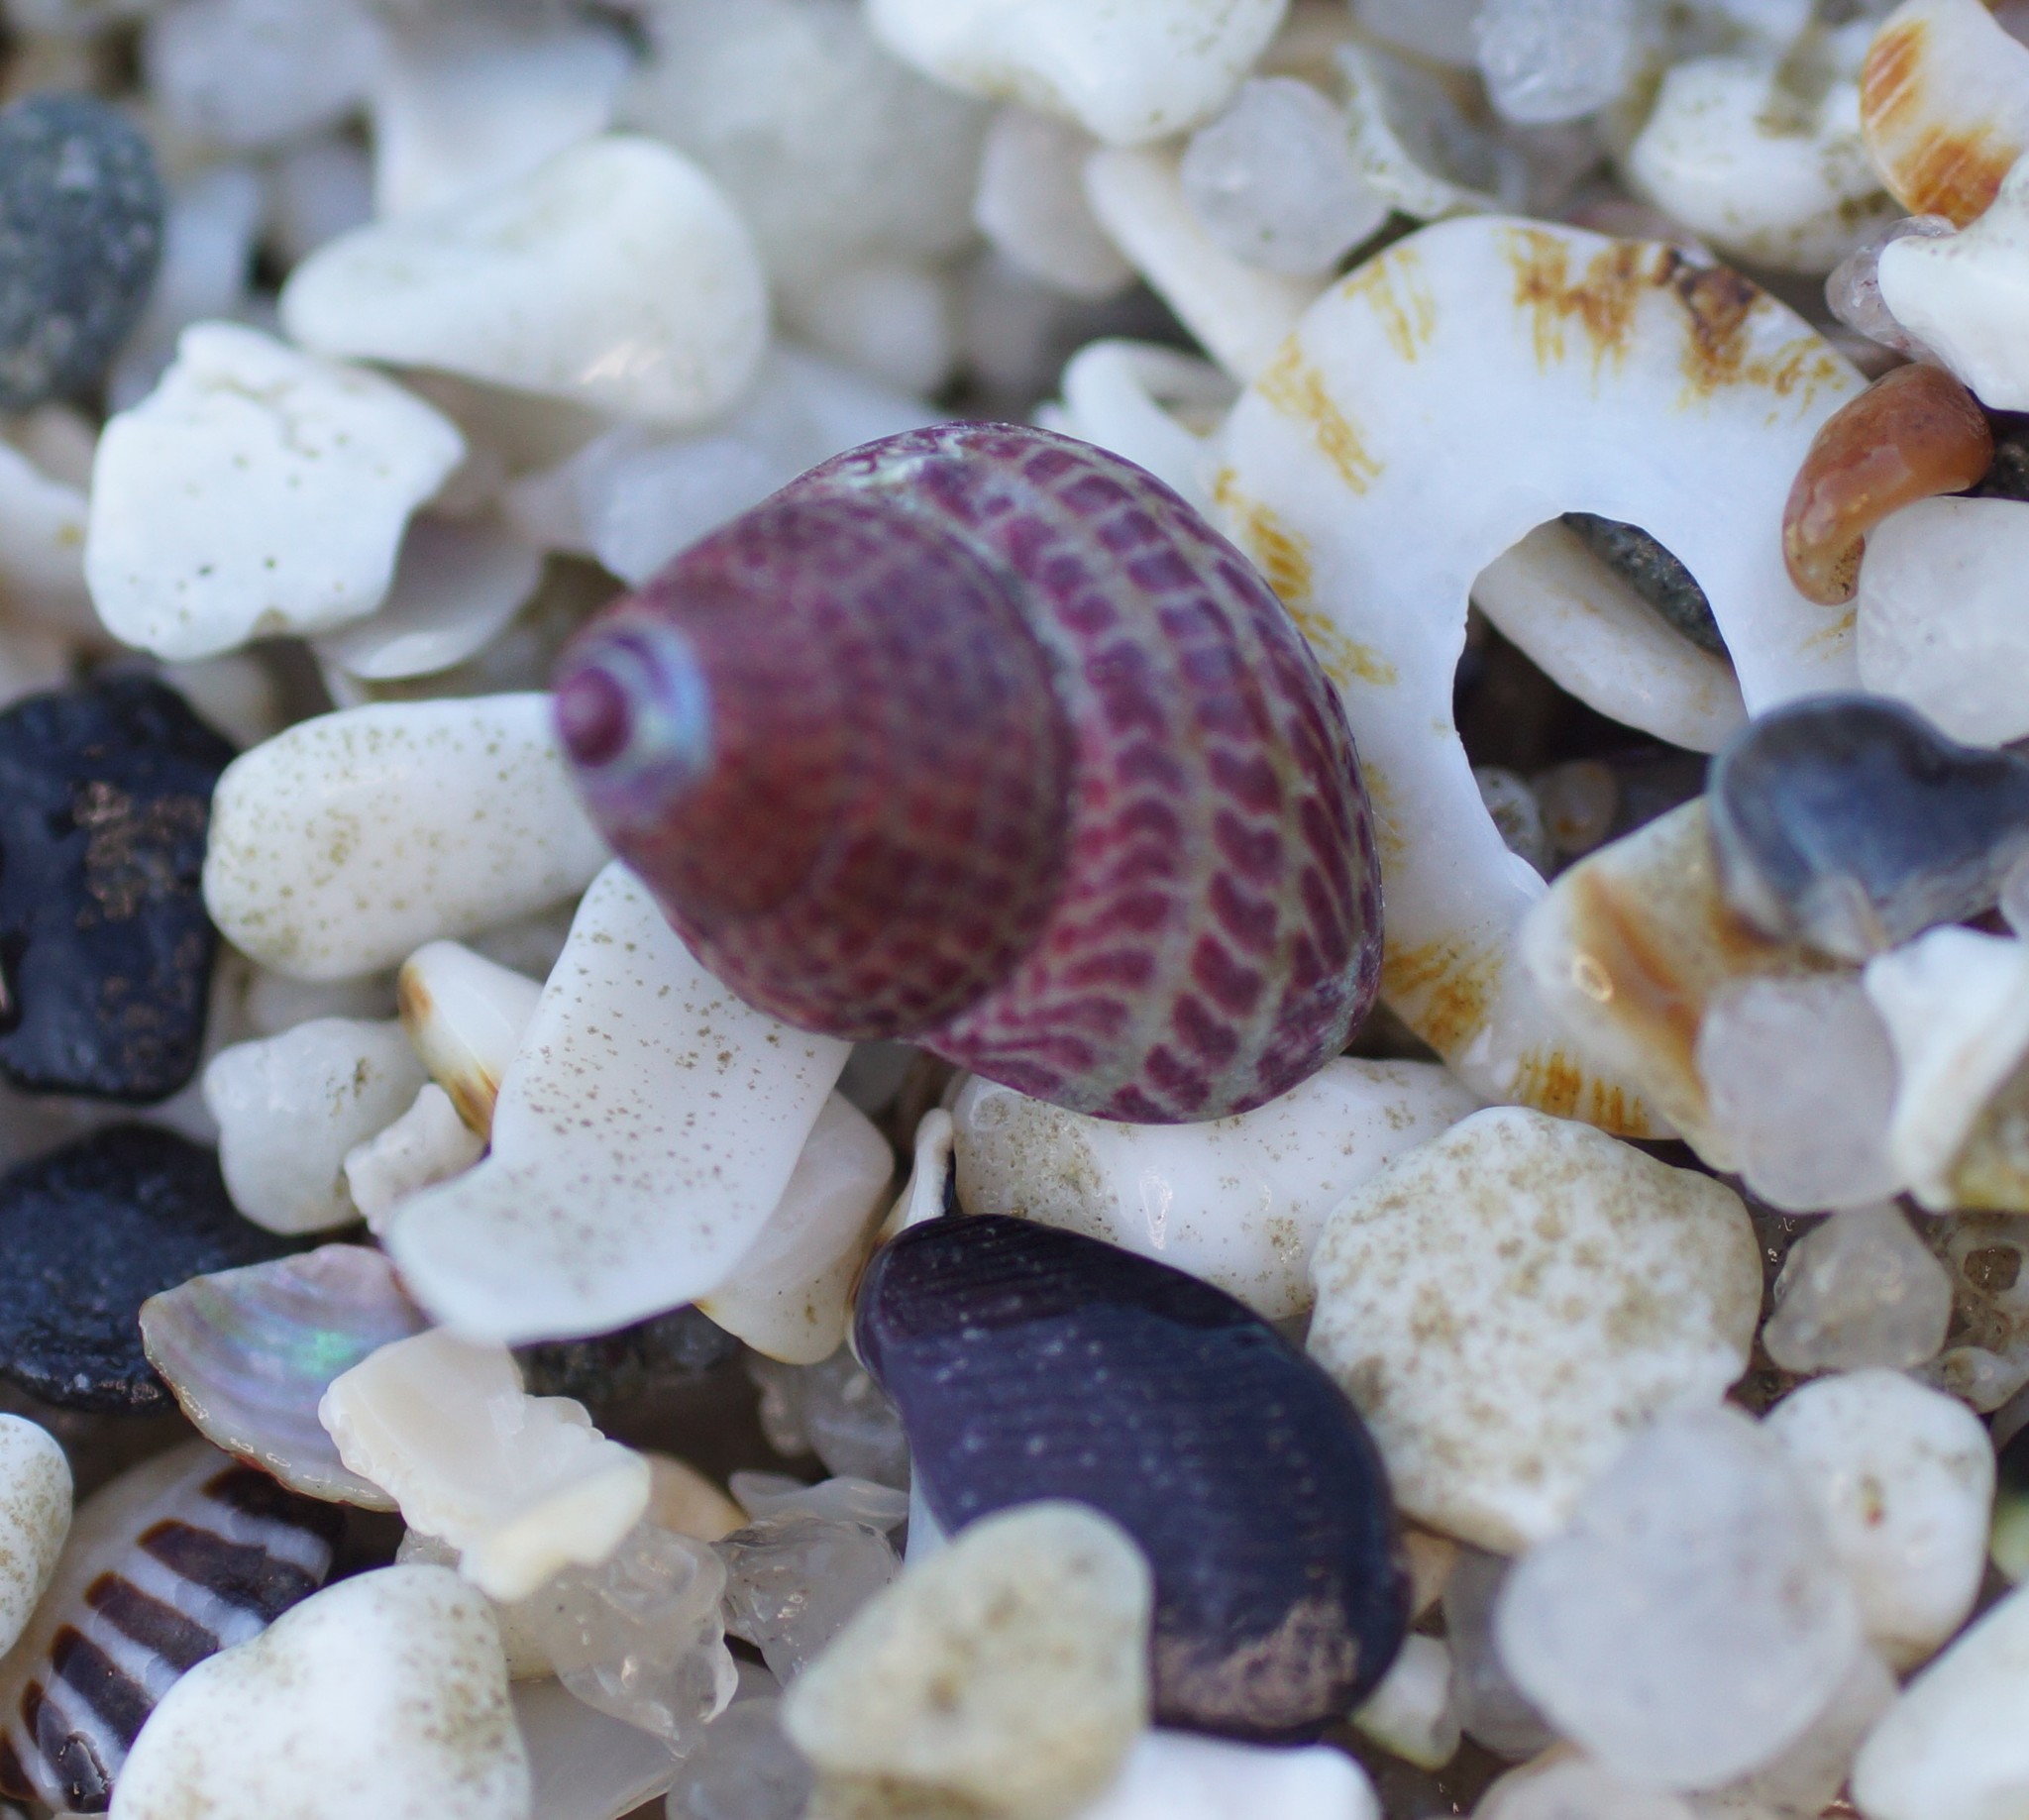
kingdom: Animalia
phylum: Mollusca
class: Gastropoda
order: Trochida
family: Trochidae
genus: Prothalotia
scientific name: Prothalotia pulcherrima
